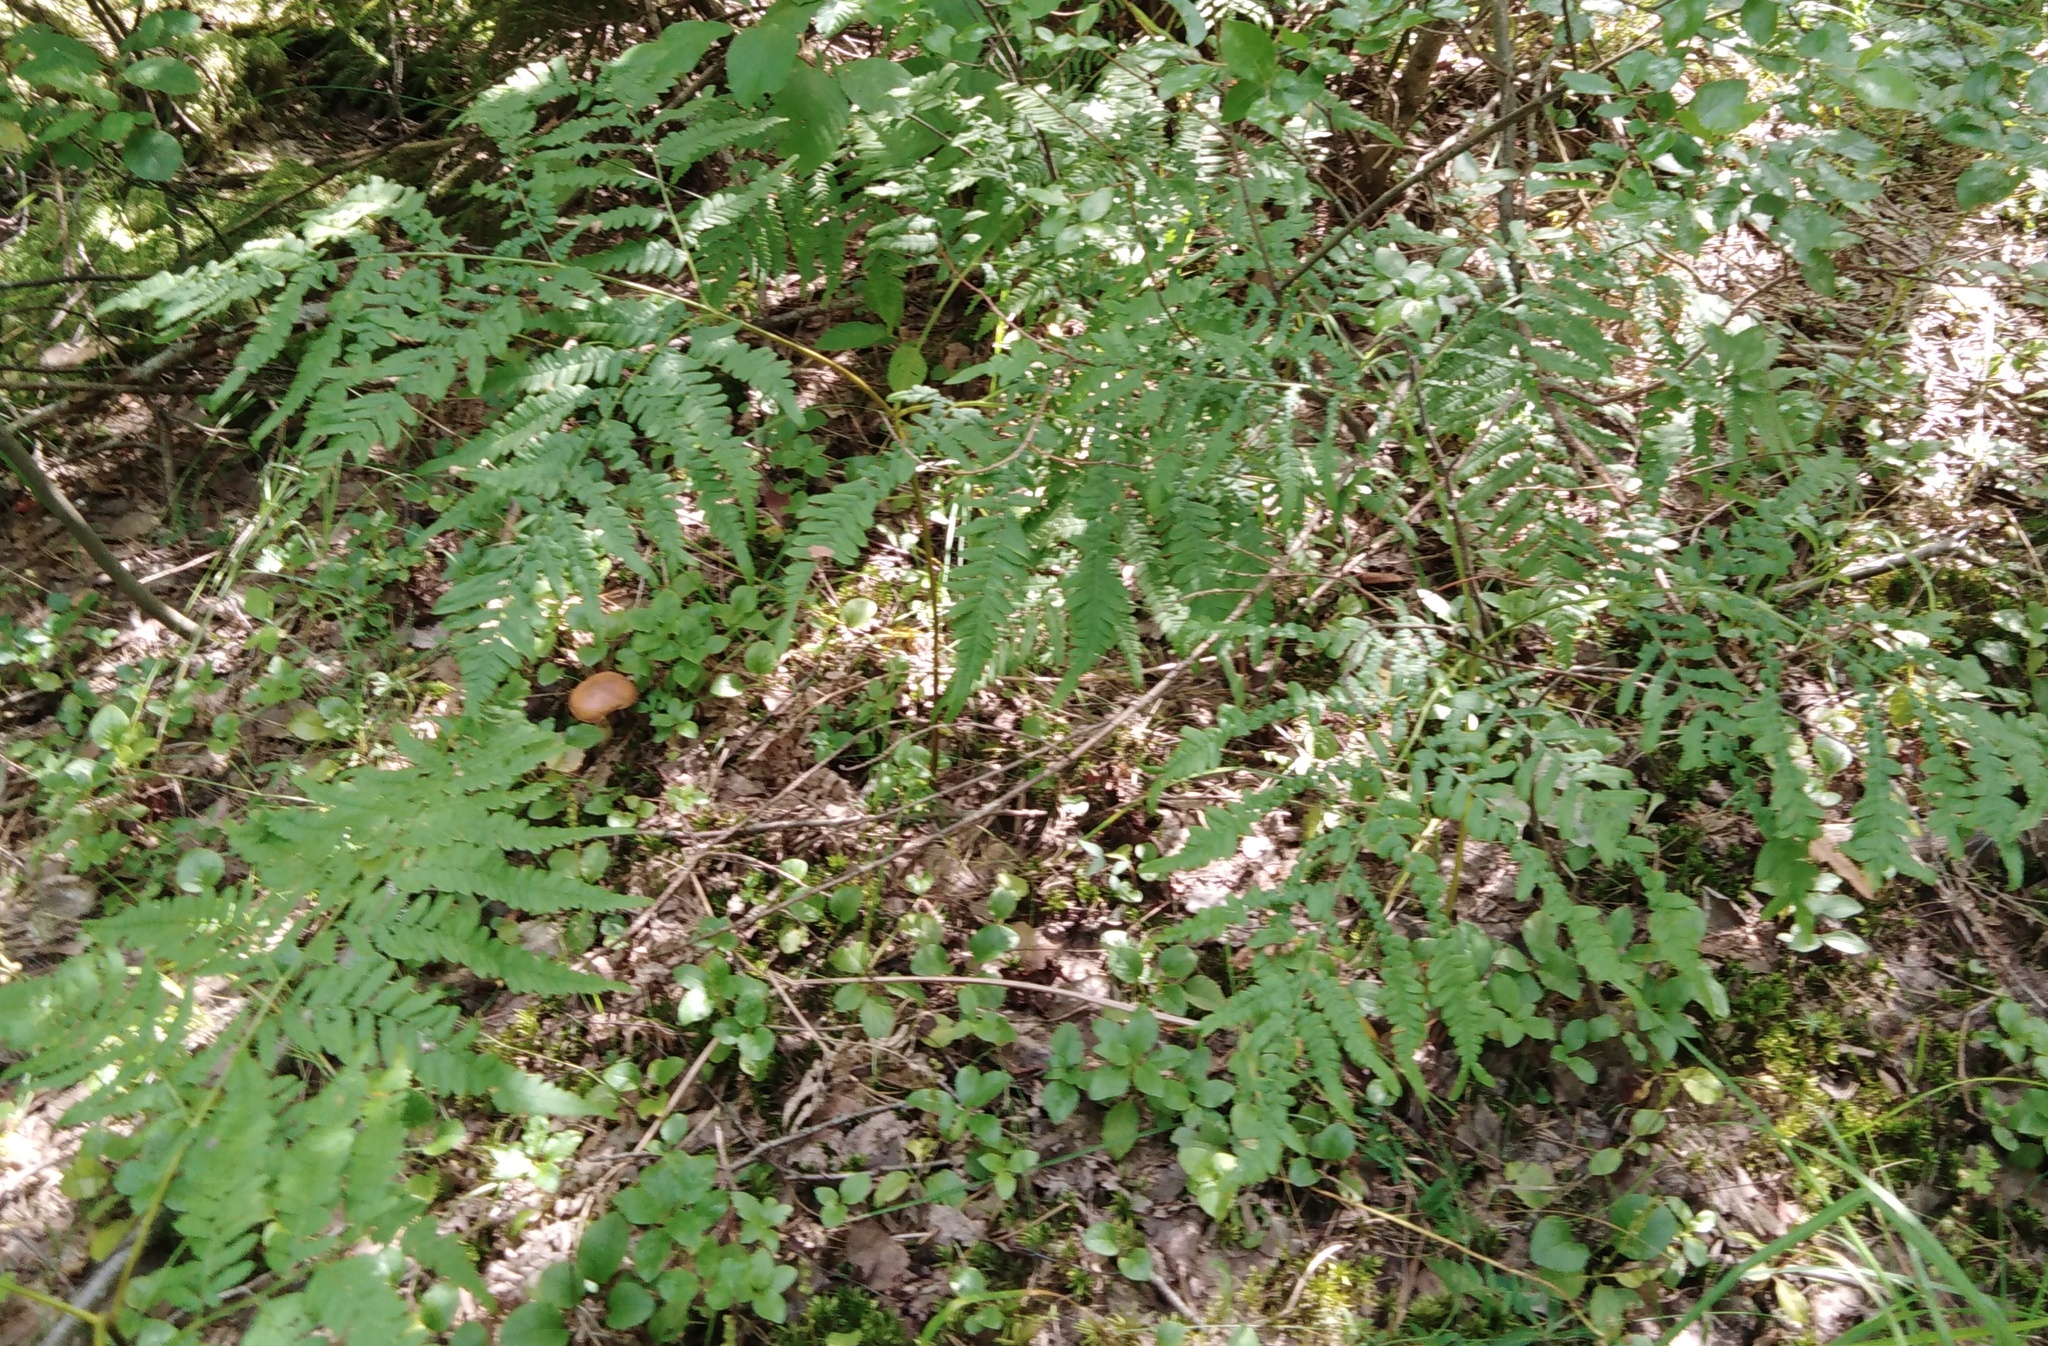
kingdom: Plantae
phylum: Tracheophyta
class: Polypodiopsida
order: Polypodiales
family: Dennstaedtiaceae
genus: Pteridium
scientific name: Pteridium aquilinum
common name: Bracken
